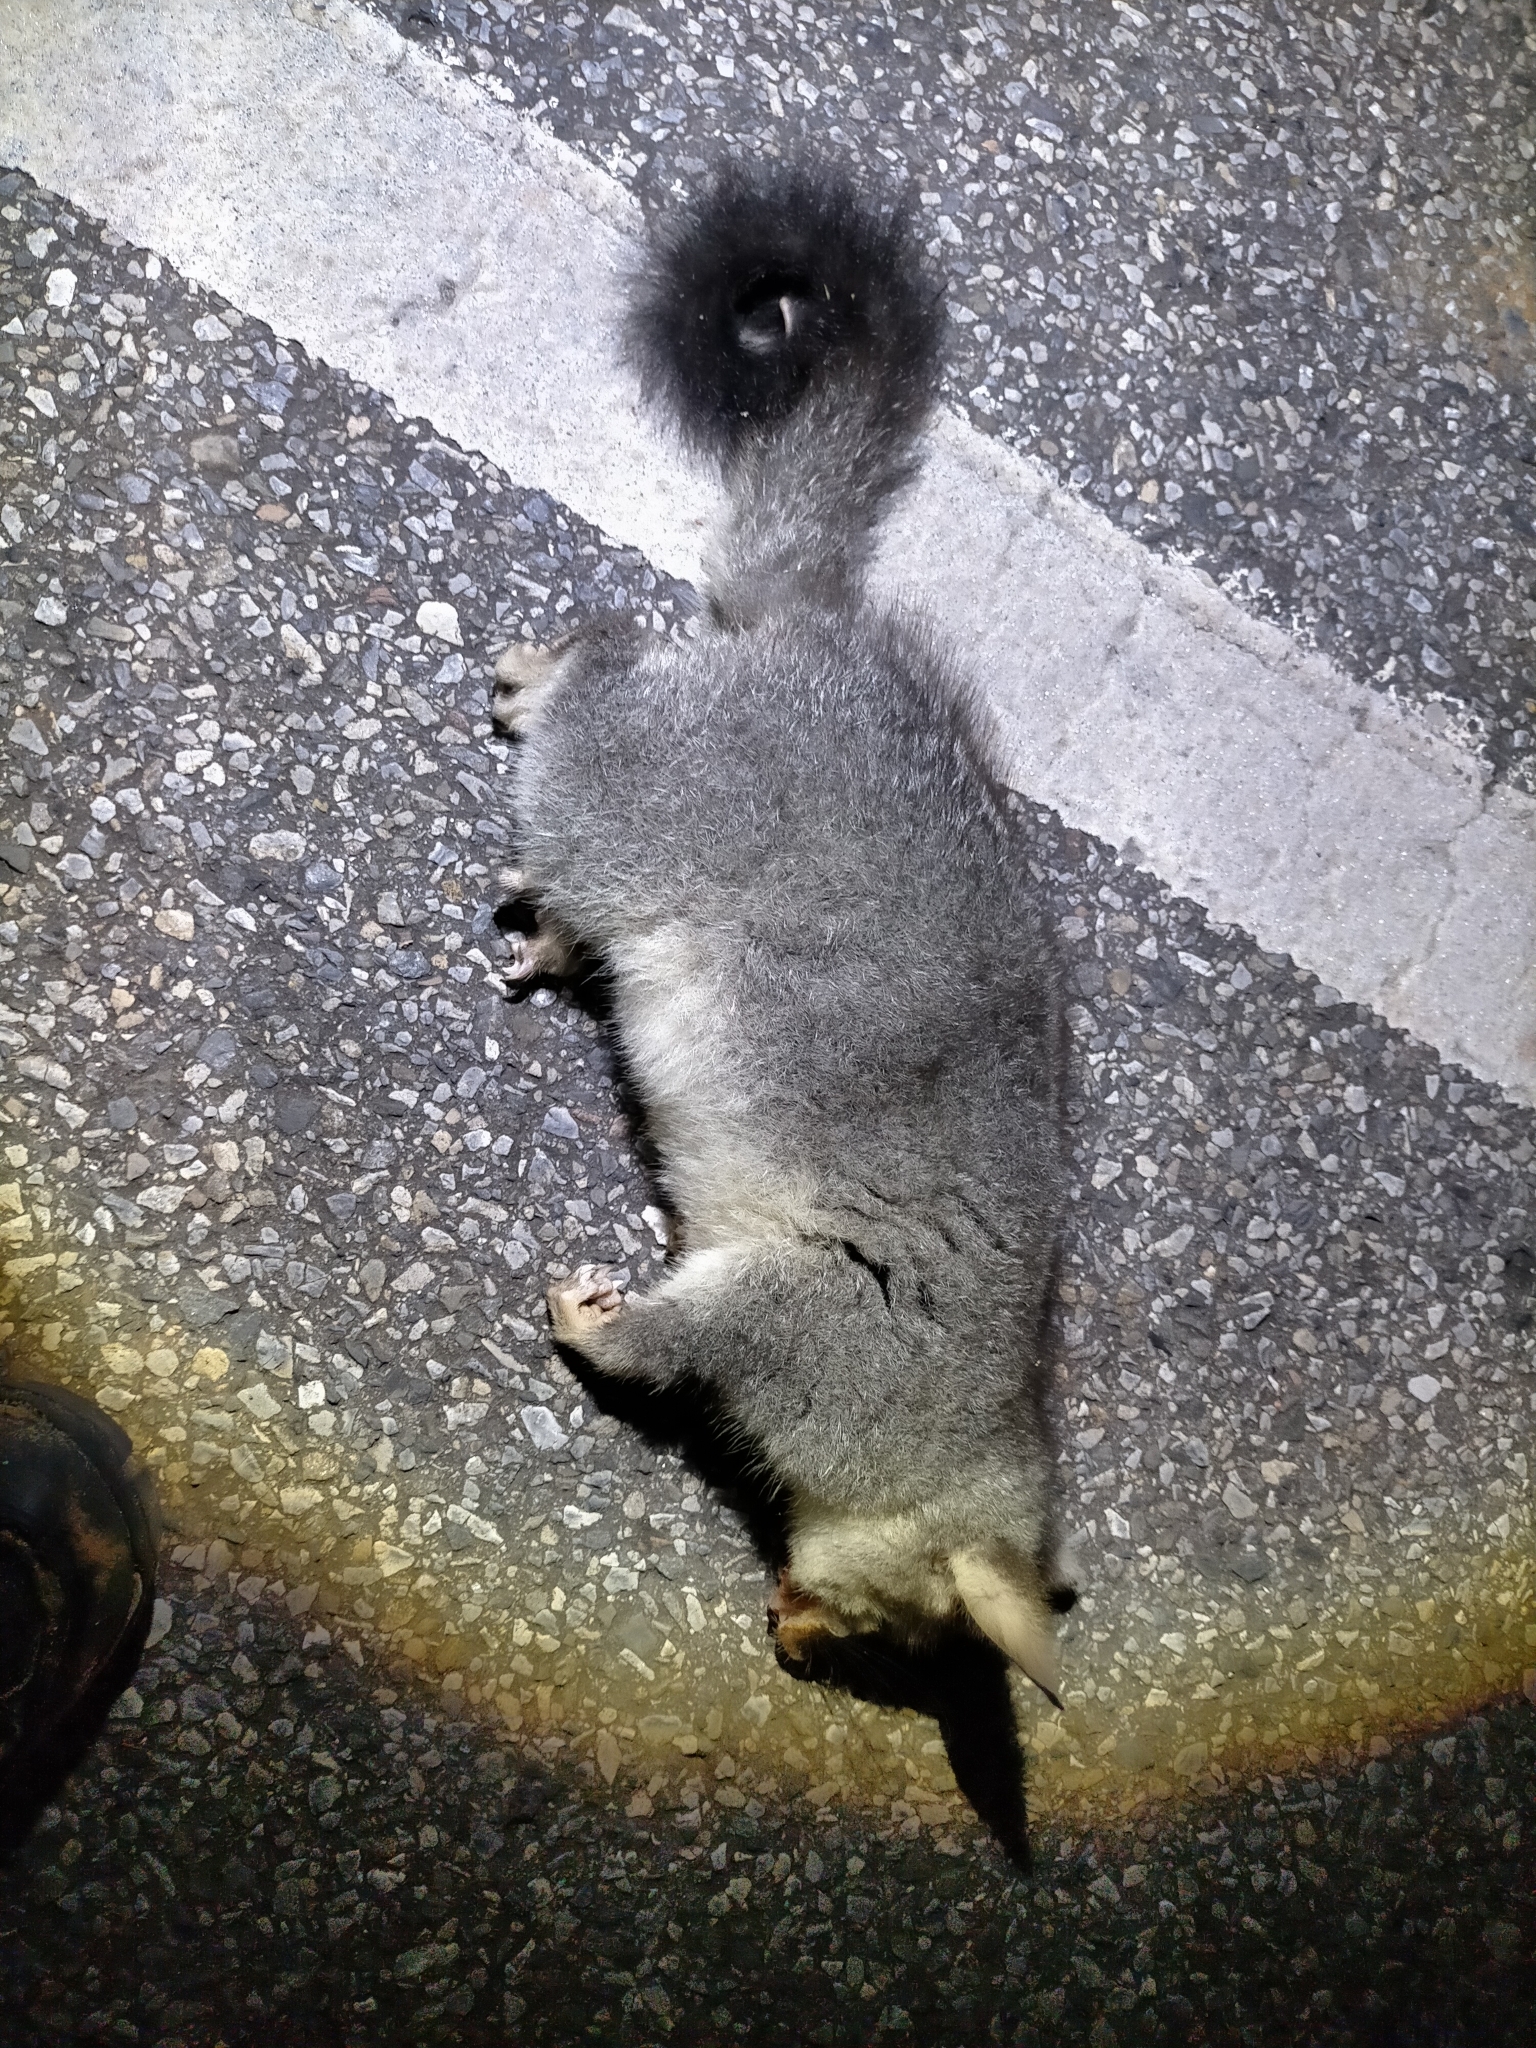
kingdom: Animalia
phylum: Chordata
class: Mammalia
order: Diprotodontia
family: Phalangeridae
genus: Trichosurus
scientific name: Trichosurus vulpecula
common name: Common brushtail
